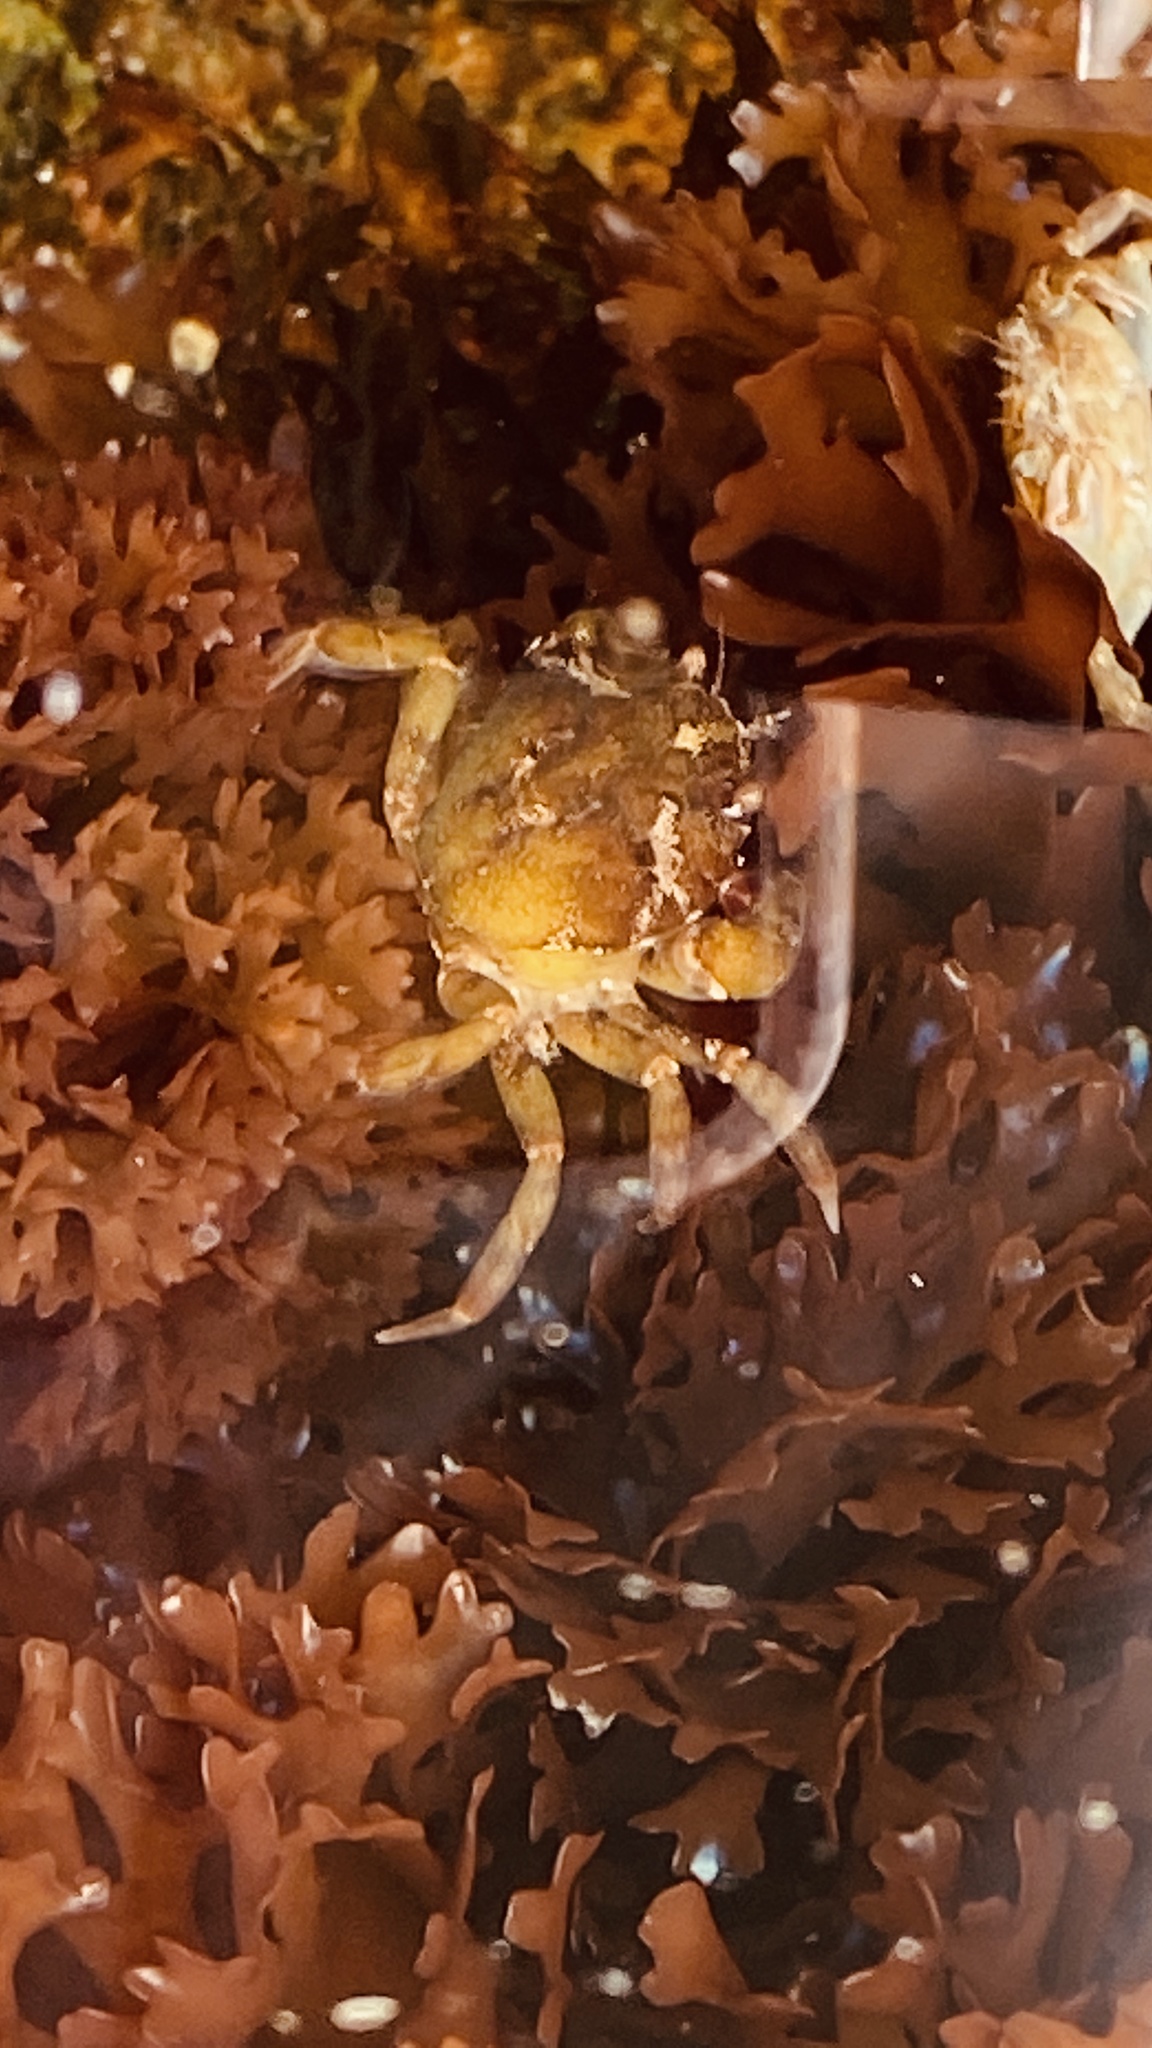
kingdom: Animalia
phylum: Arthropoda
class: Malacostraca
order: Decapoda
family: Carcinidae
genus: Carcinus
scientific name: Carcinus maenas
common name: European green crab
